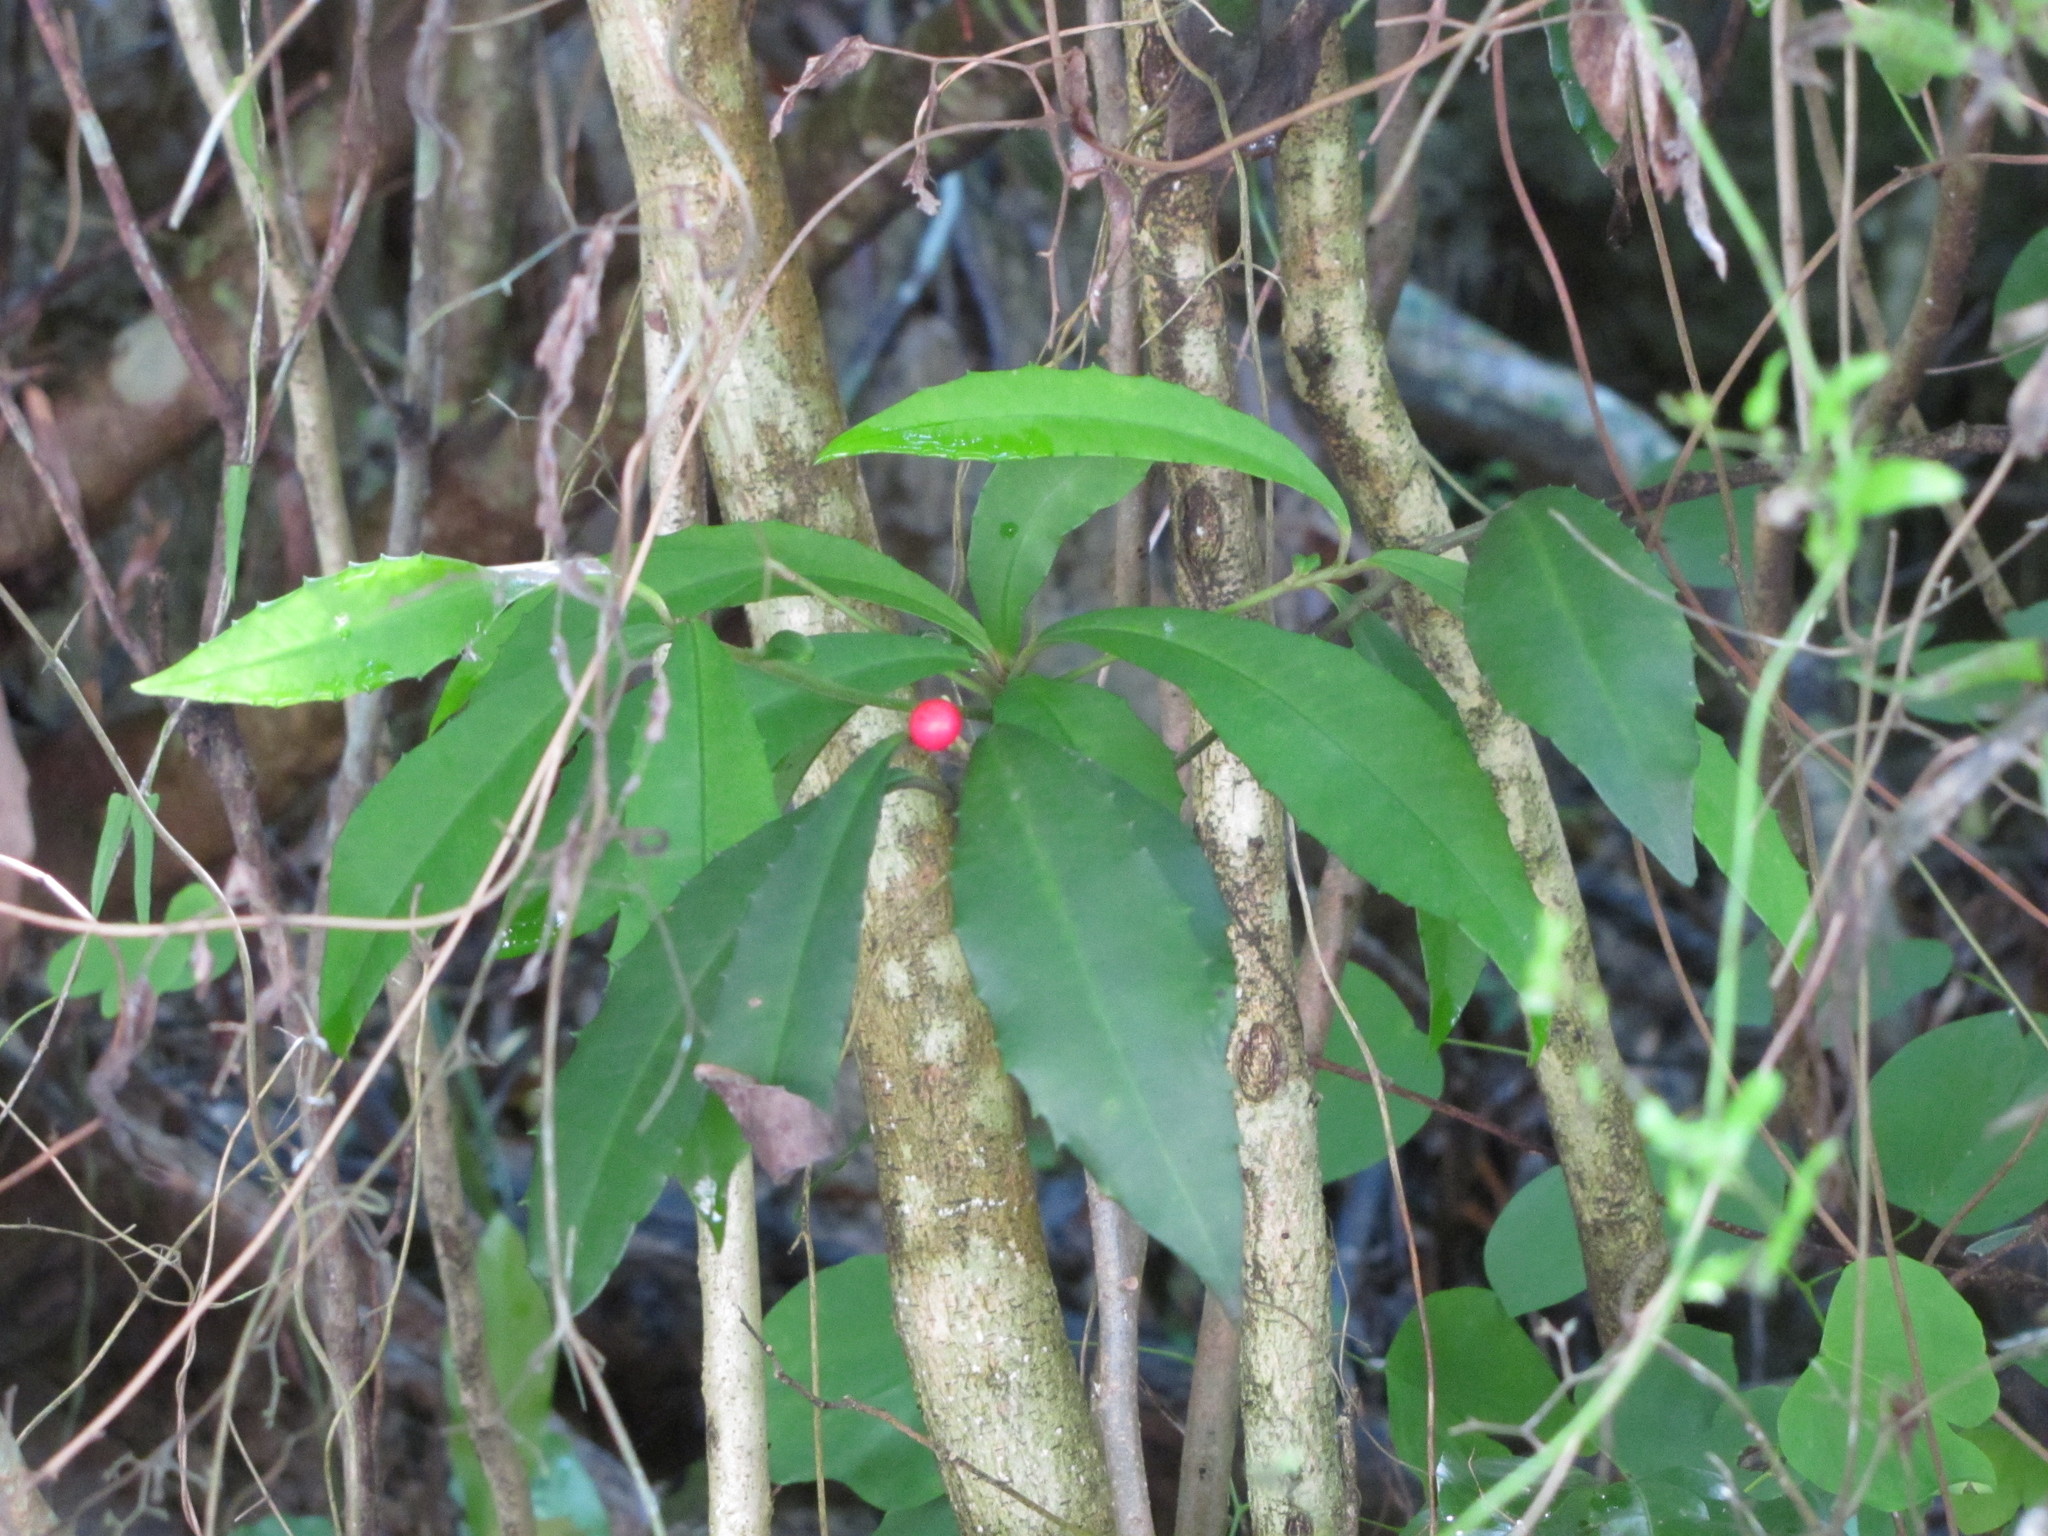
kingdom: Plantae
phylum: Tracheophyta
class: Magnoliopsida
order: Ericales
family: Primulaceae
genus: Ardisia
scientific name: Ardisia cornudentata
